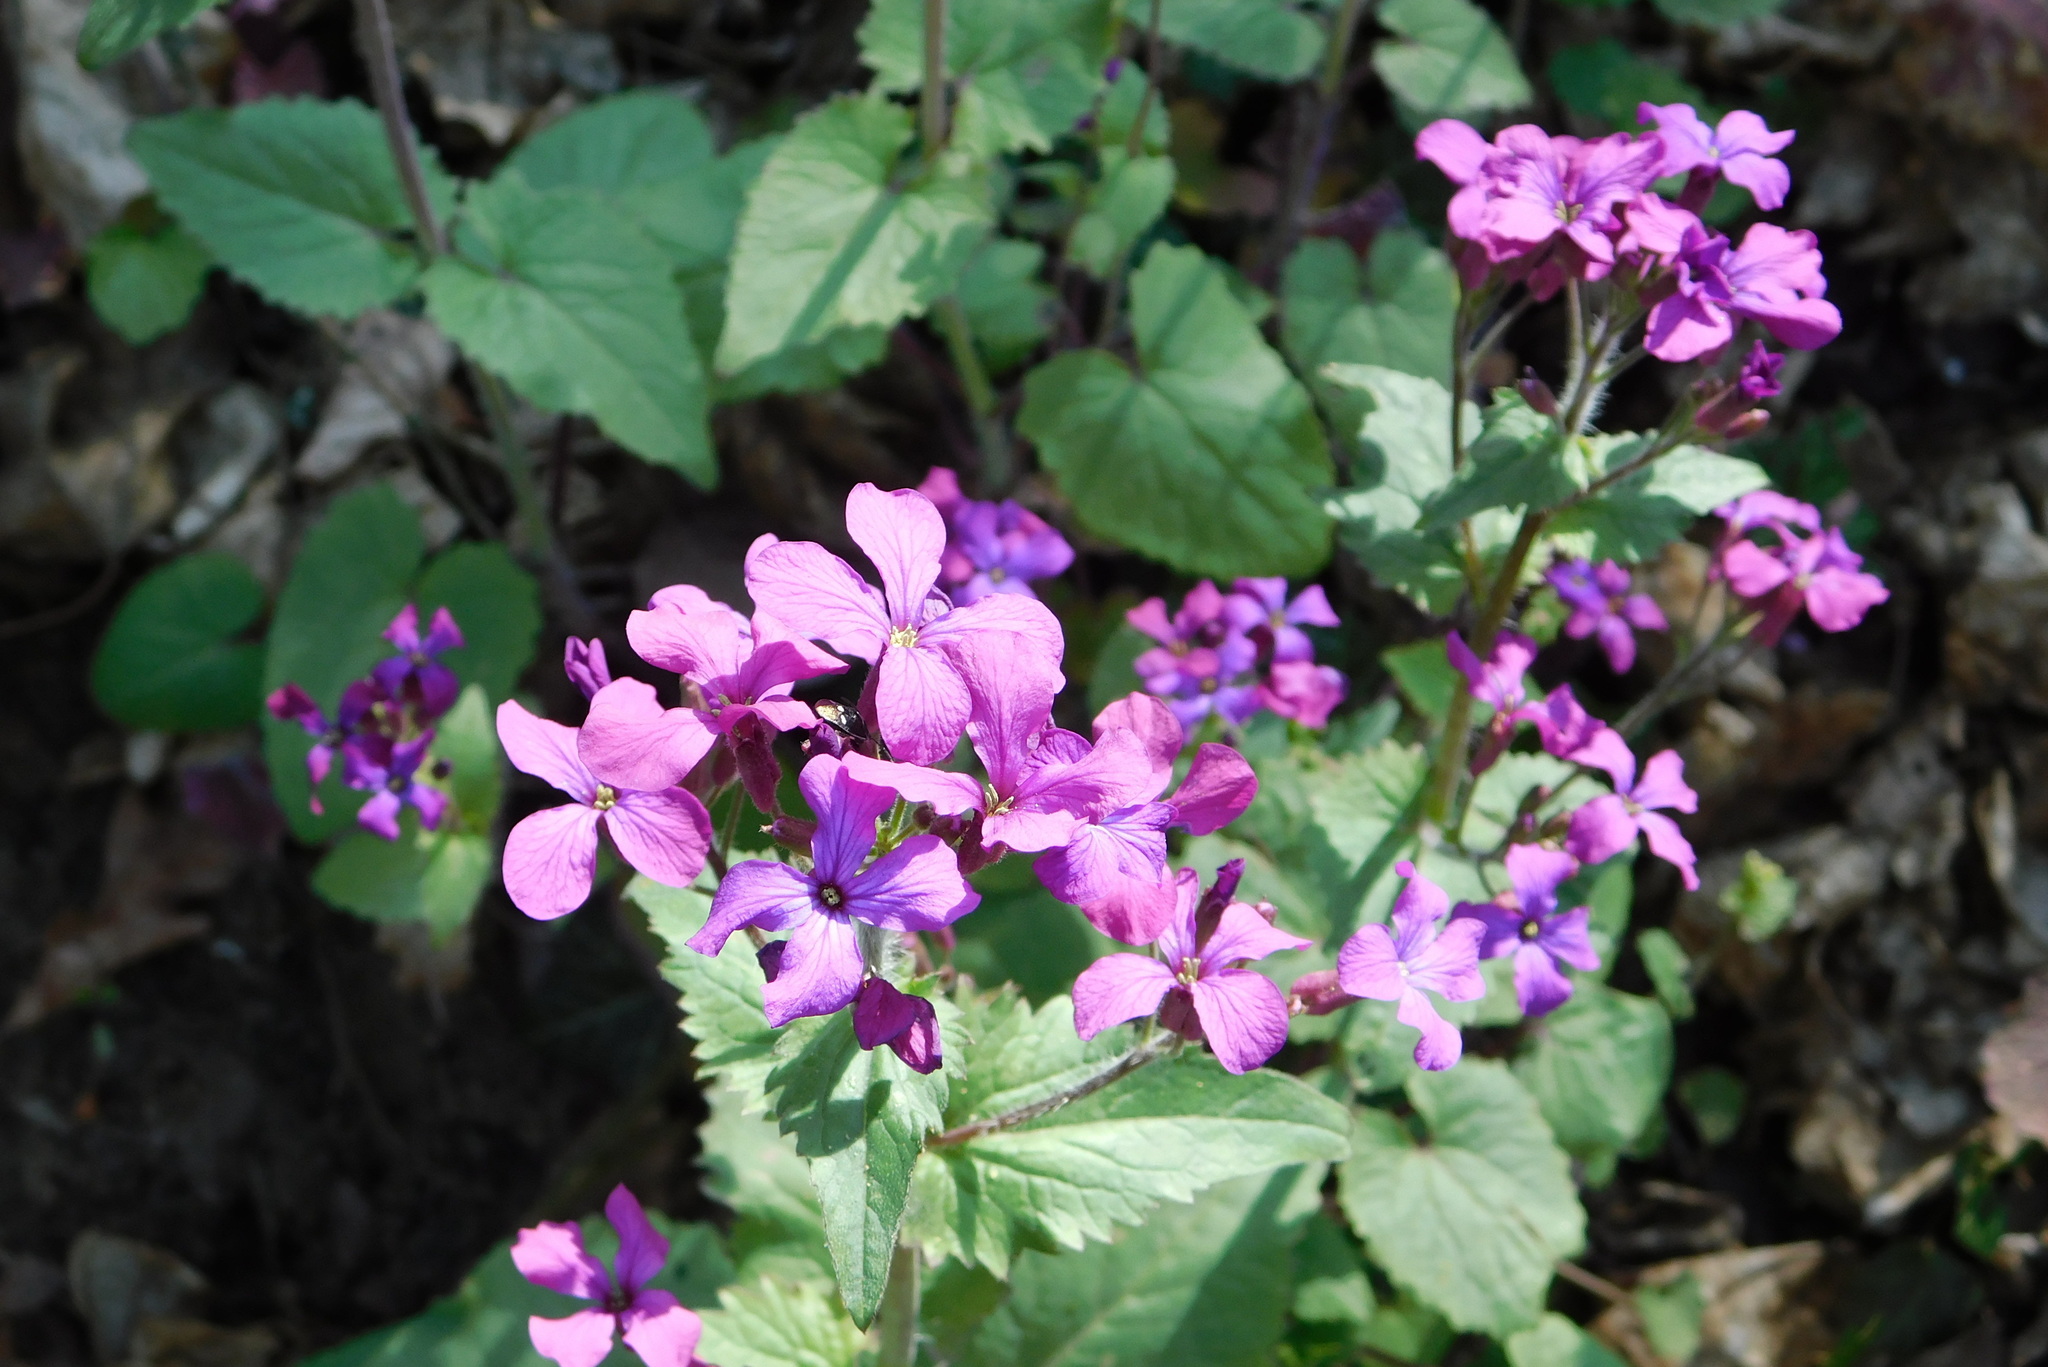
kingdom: Plantae
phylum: Tracheophyta
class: Magnoliopsida
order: Brassicales
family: Brassicaceae
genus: Lunaria
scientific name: Lunaria annua
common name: Honesty
